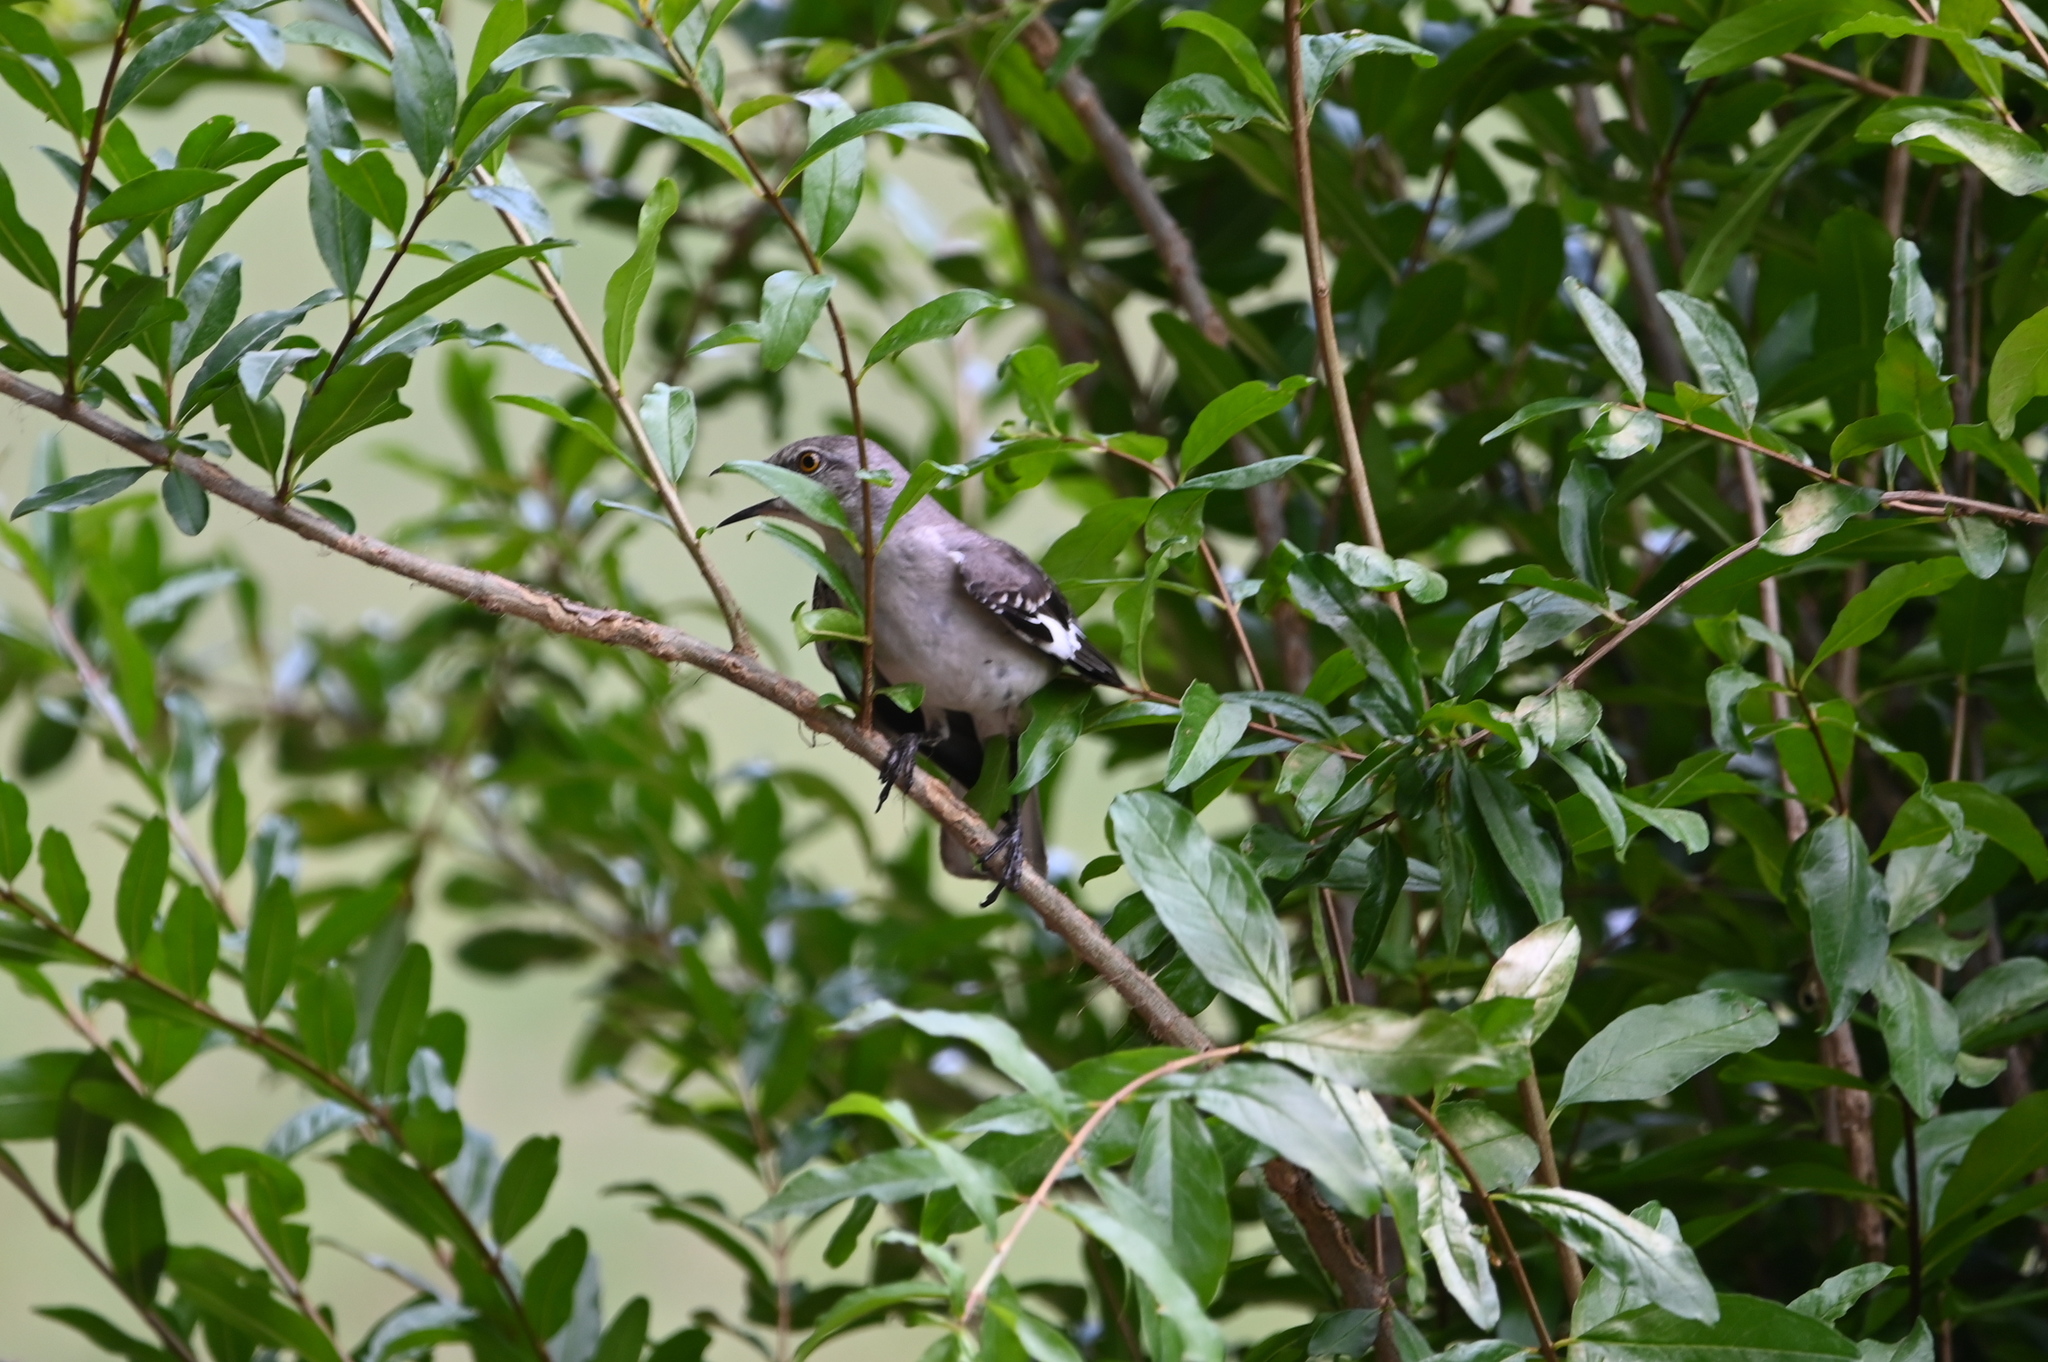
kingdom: Animalia
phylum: Chordata
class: Aves
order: Passeriformes
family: Mimidae
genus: Mimus
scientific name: Mimus polyglottos
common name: Northern mockingbird
